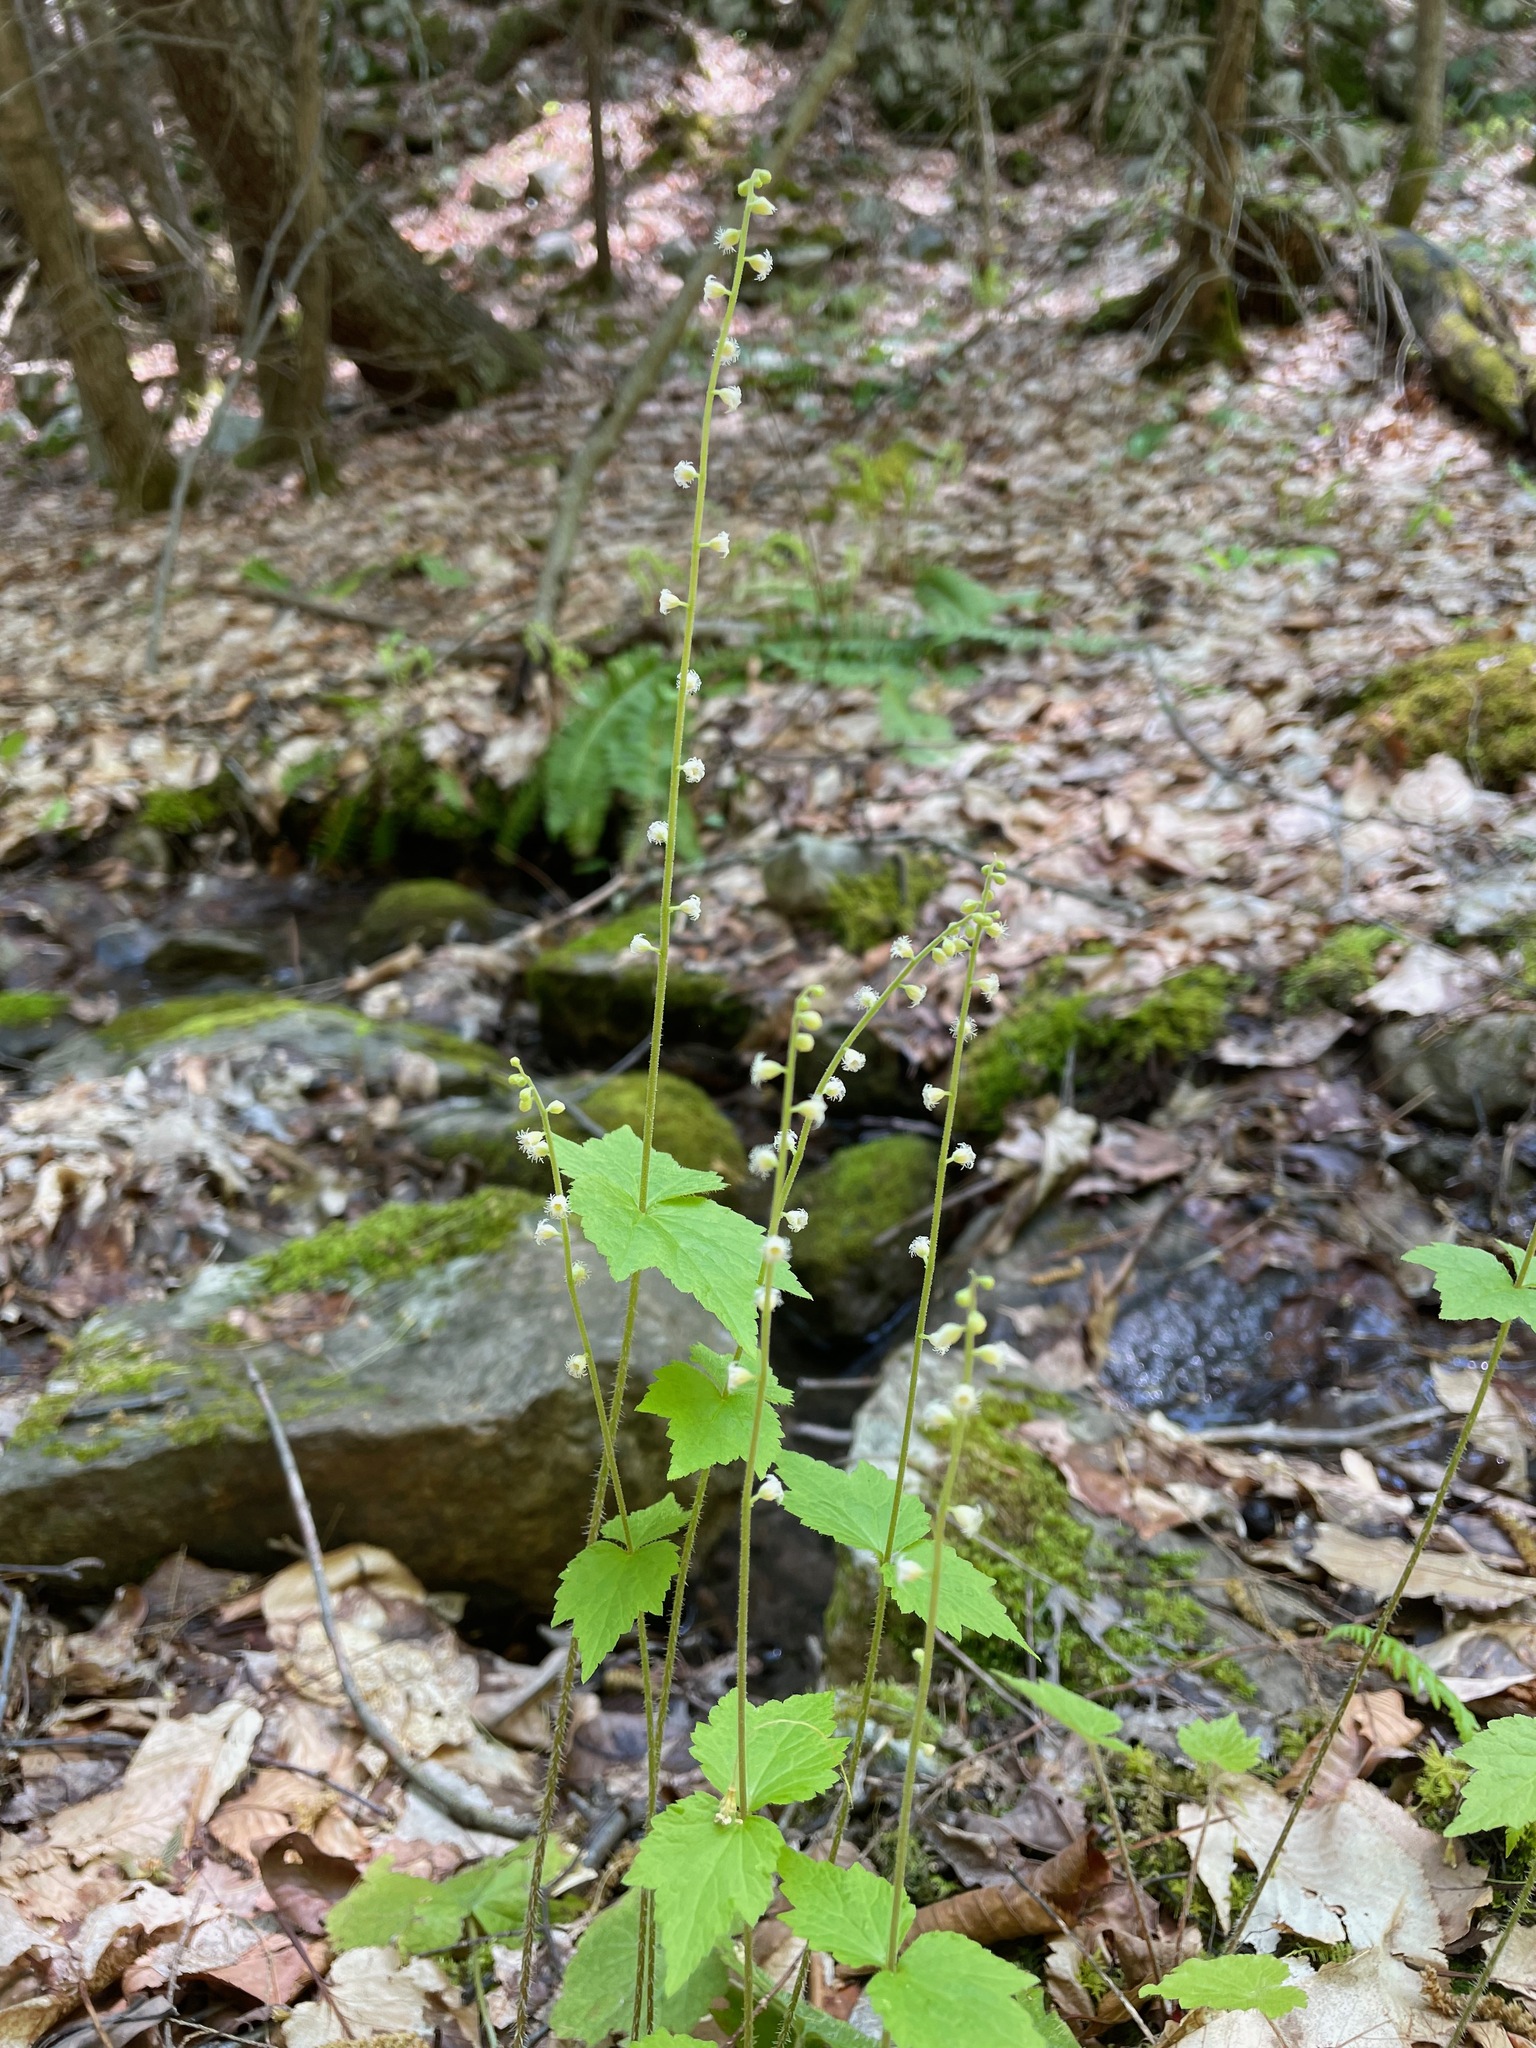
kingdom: Plantae
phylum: Tracheophyta
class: Magnoliopsida
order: Saxifragales
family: Saxifragaceae
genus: Mitella
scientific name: Mitella diphylla
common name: Coolwort
